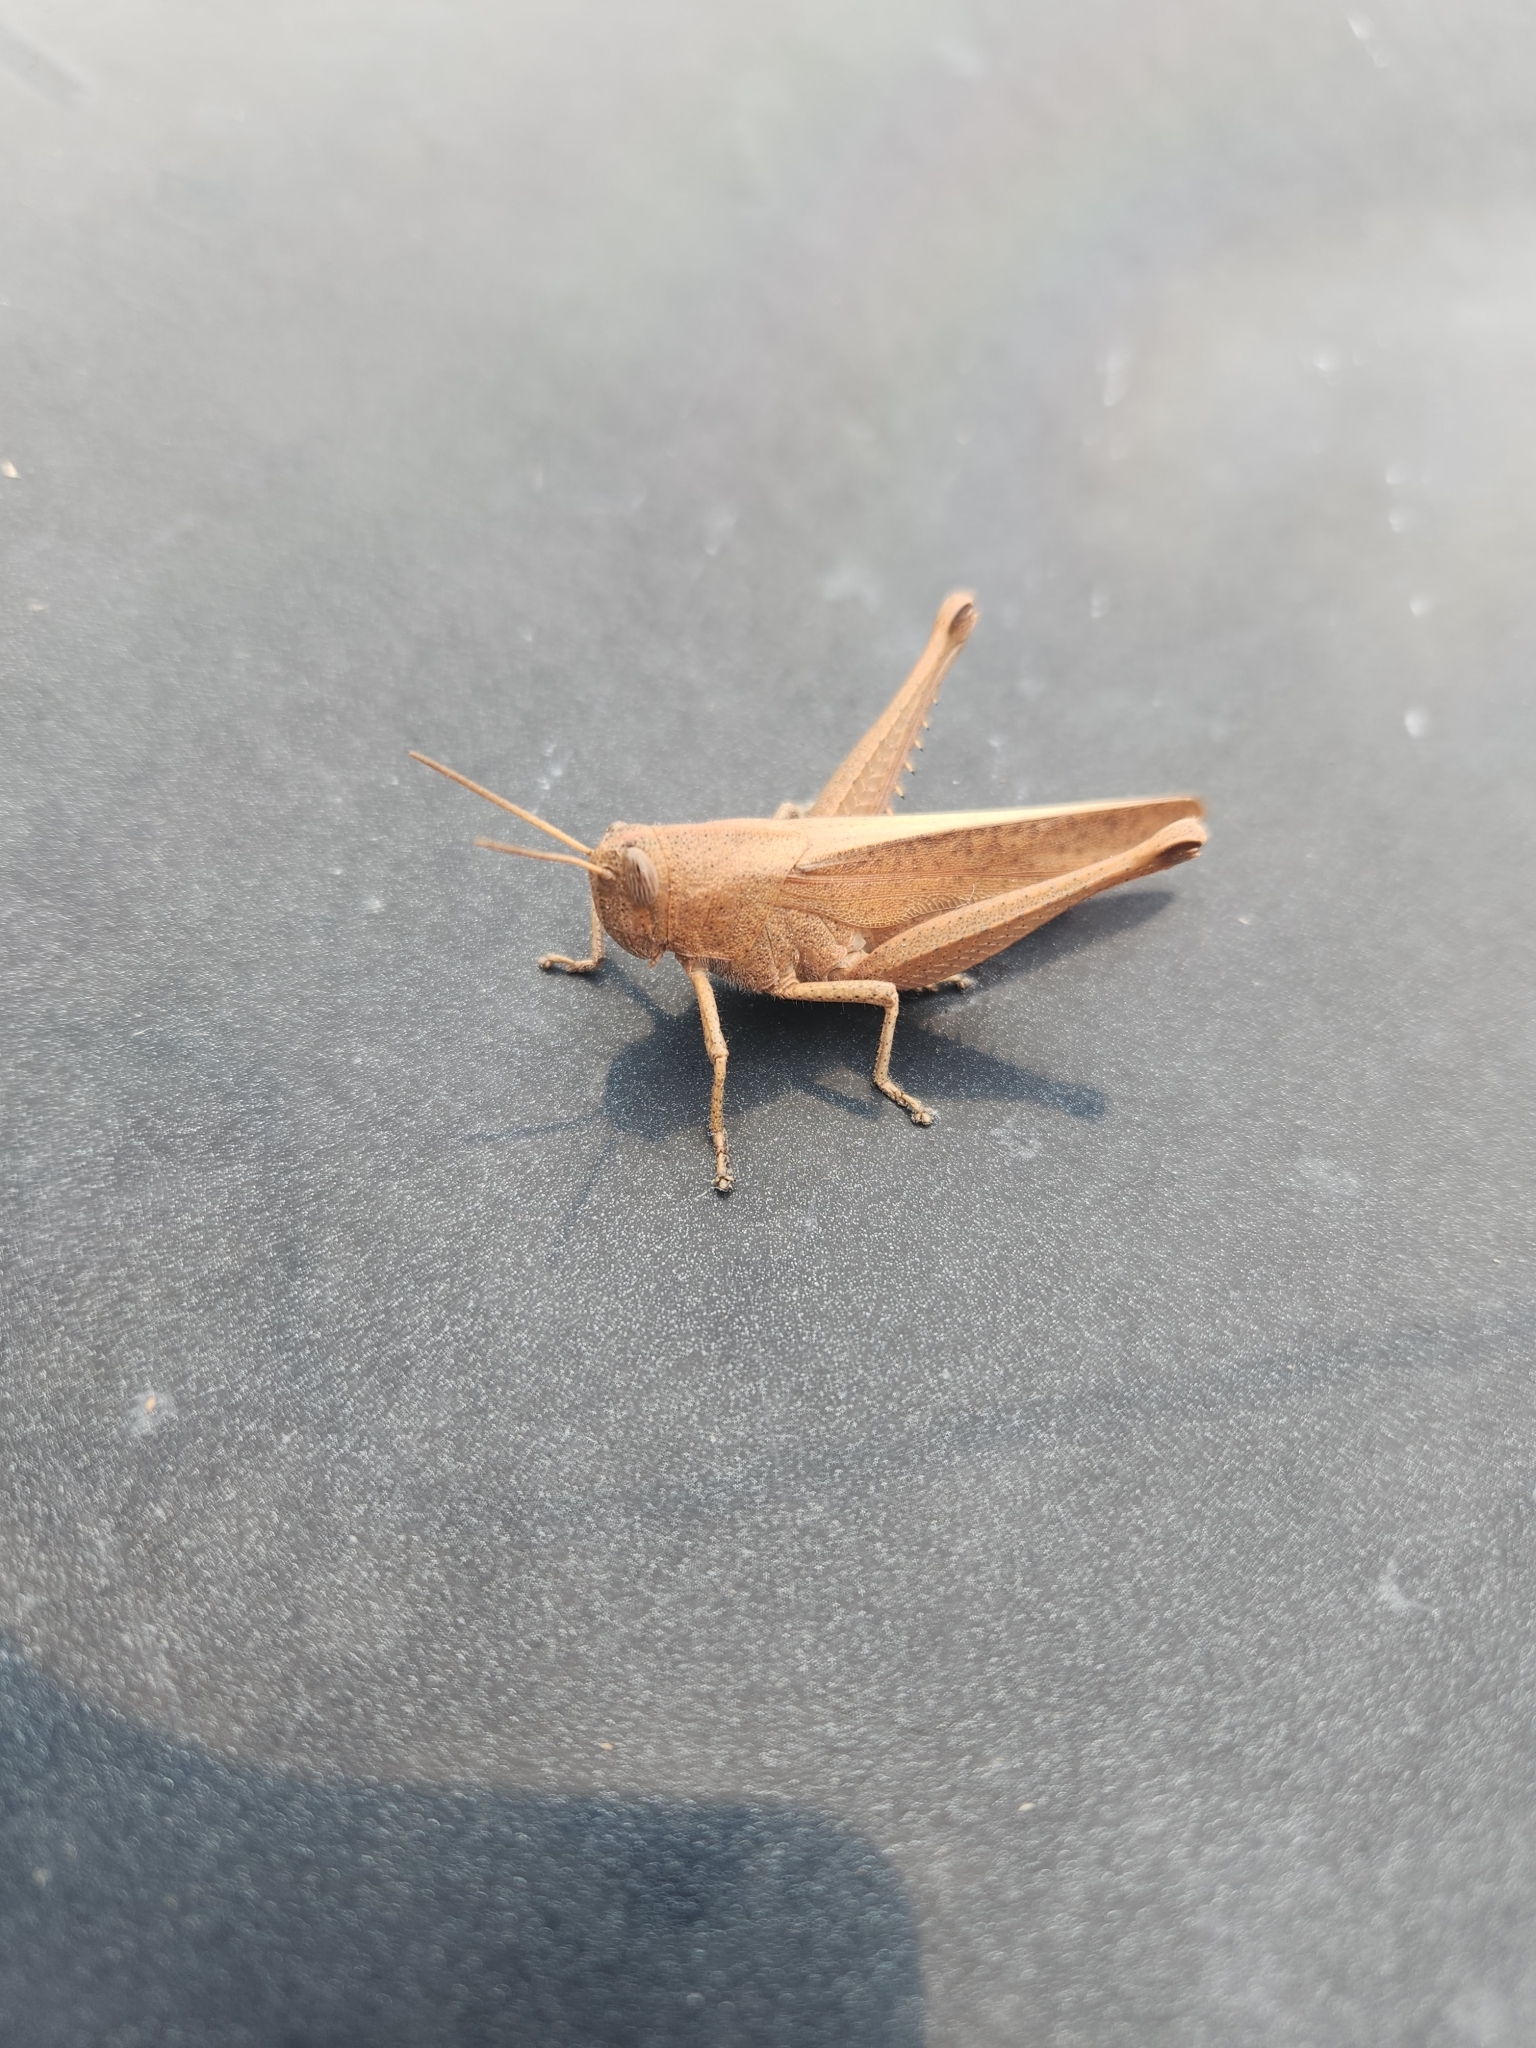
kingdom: Animalia
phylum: Arthropoda
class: Insecta
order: Orthoptera
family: Acrididae
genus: Schistocerca
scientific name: Schistocerca damnifica
